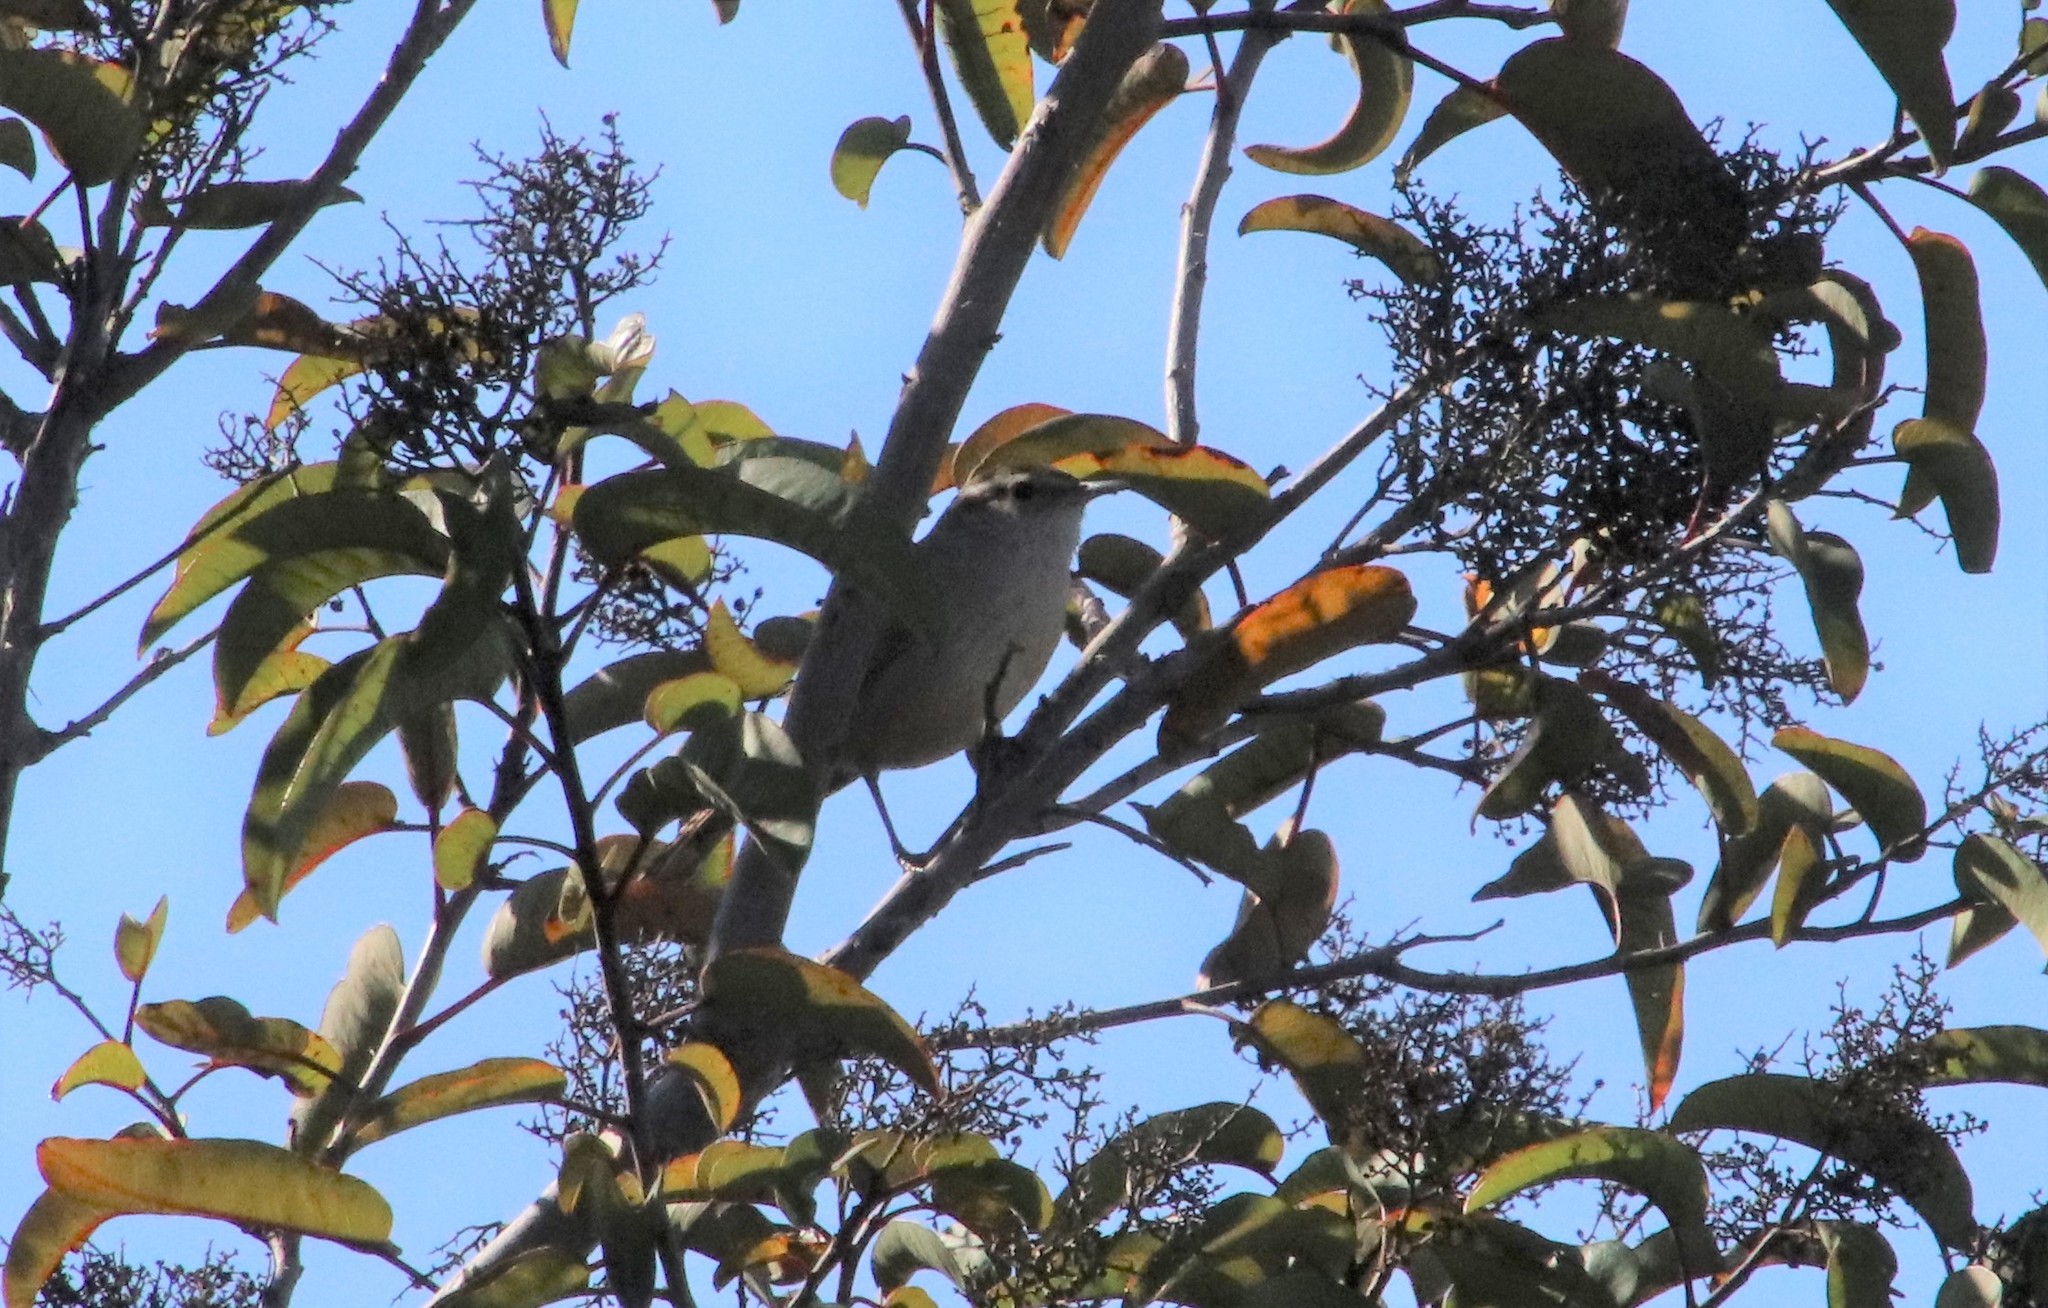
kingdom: Animalia
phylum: Chordata
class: Aves
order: Passeriformes
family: Troglodytidae
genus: Thryomanes
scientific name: Thryomanes bewickii
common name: Bewick's wren
